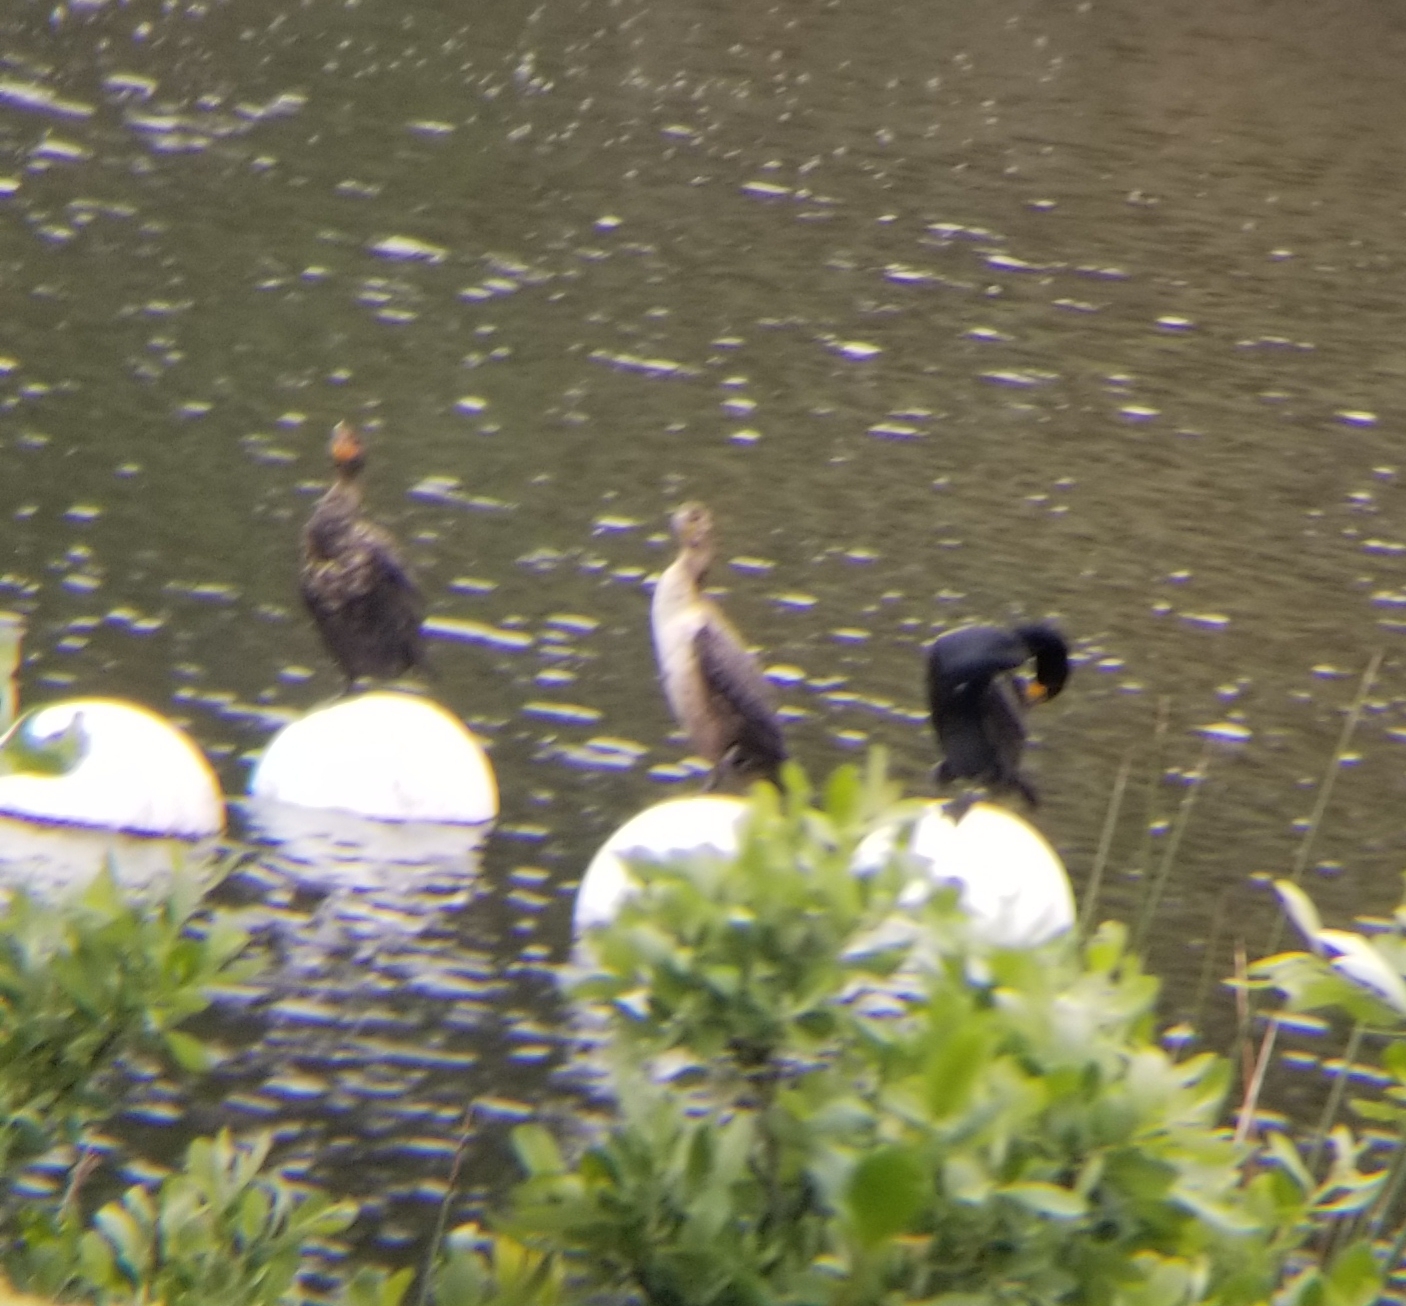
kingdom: Animalia
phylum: Chordata
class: Aves
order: Suliformes
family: Phalacrocoracidae
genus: Phalacrocorax
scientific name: Phalacrocorax auritus
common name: Double-crested cormorant
